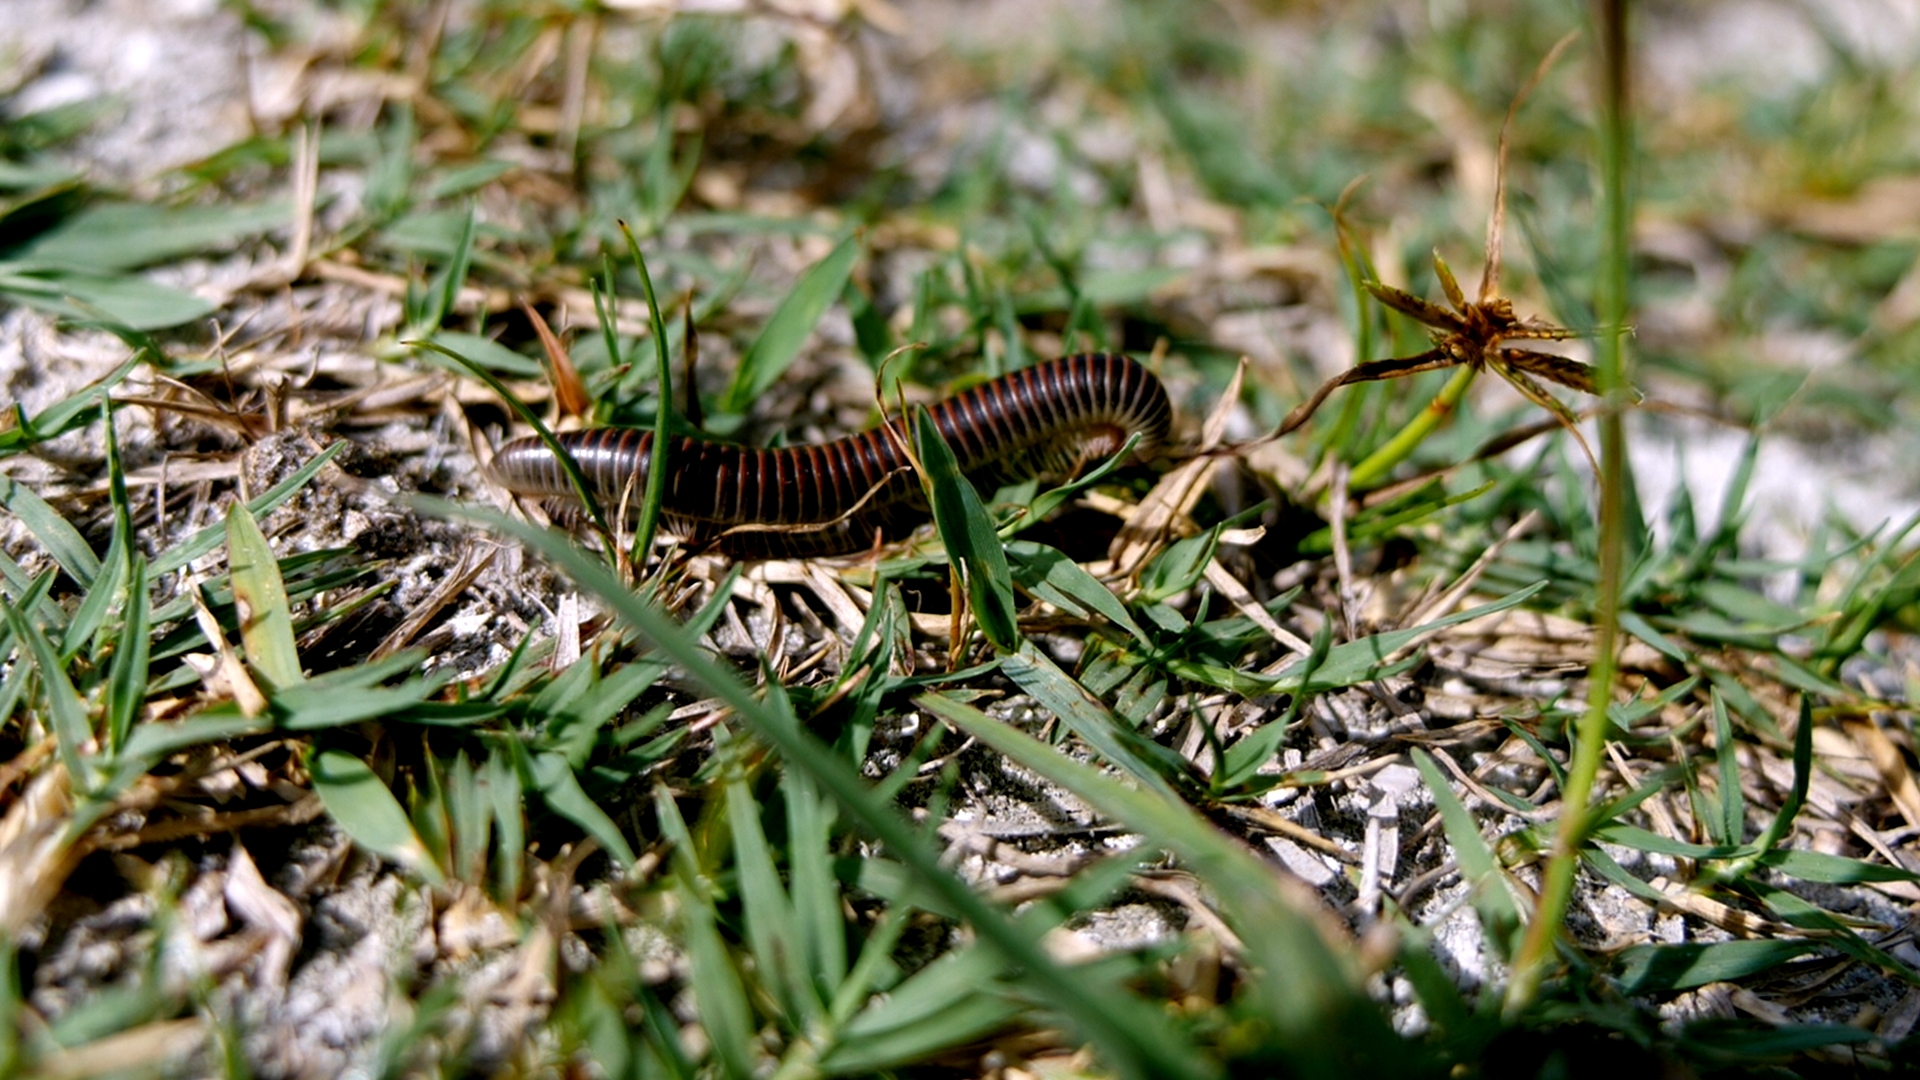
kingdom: Animalia
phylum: Arthropoda
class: Diplopoda
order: Spirobolida
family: Spirobolidae
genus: Chicobolus
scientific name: Chicobolus spinigerus
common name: Florida ivory millipede
